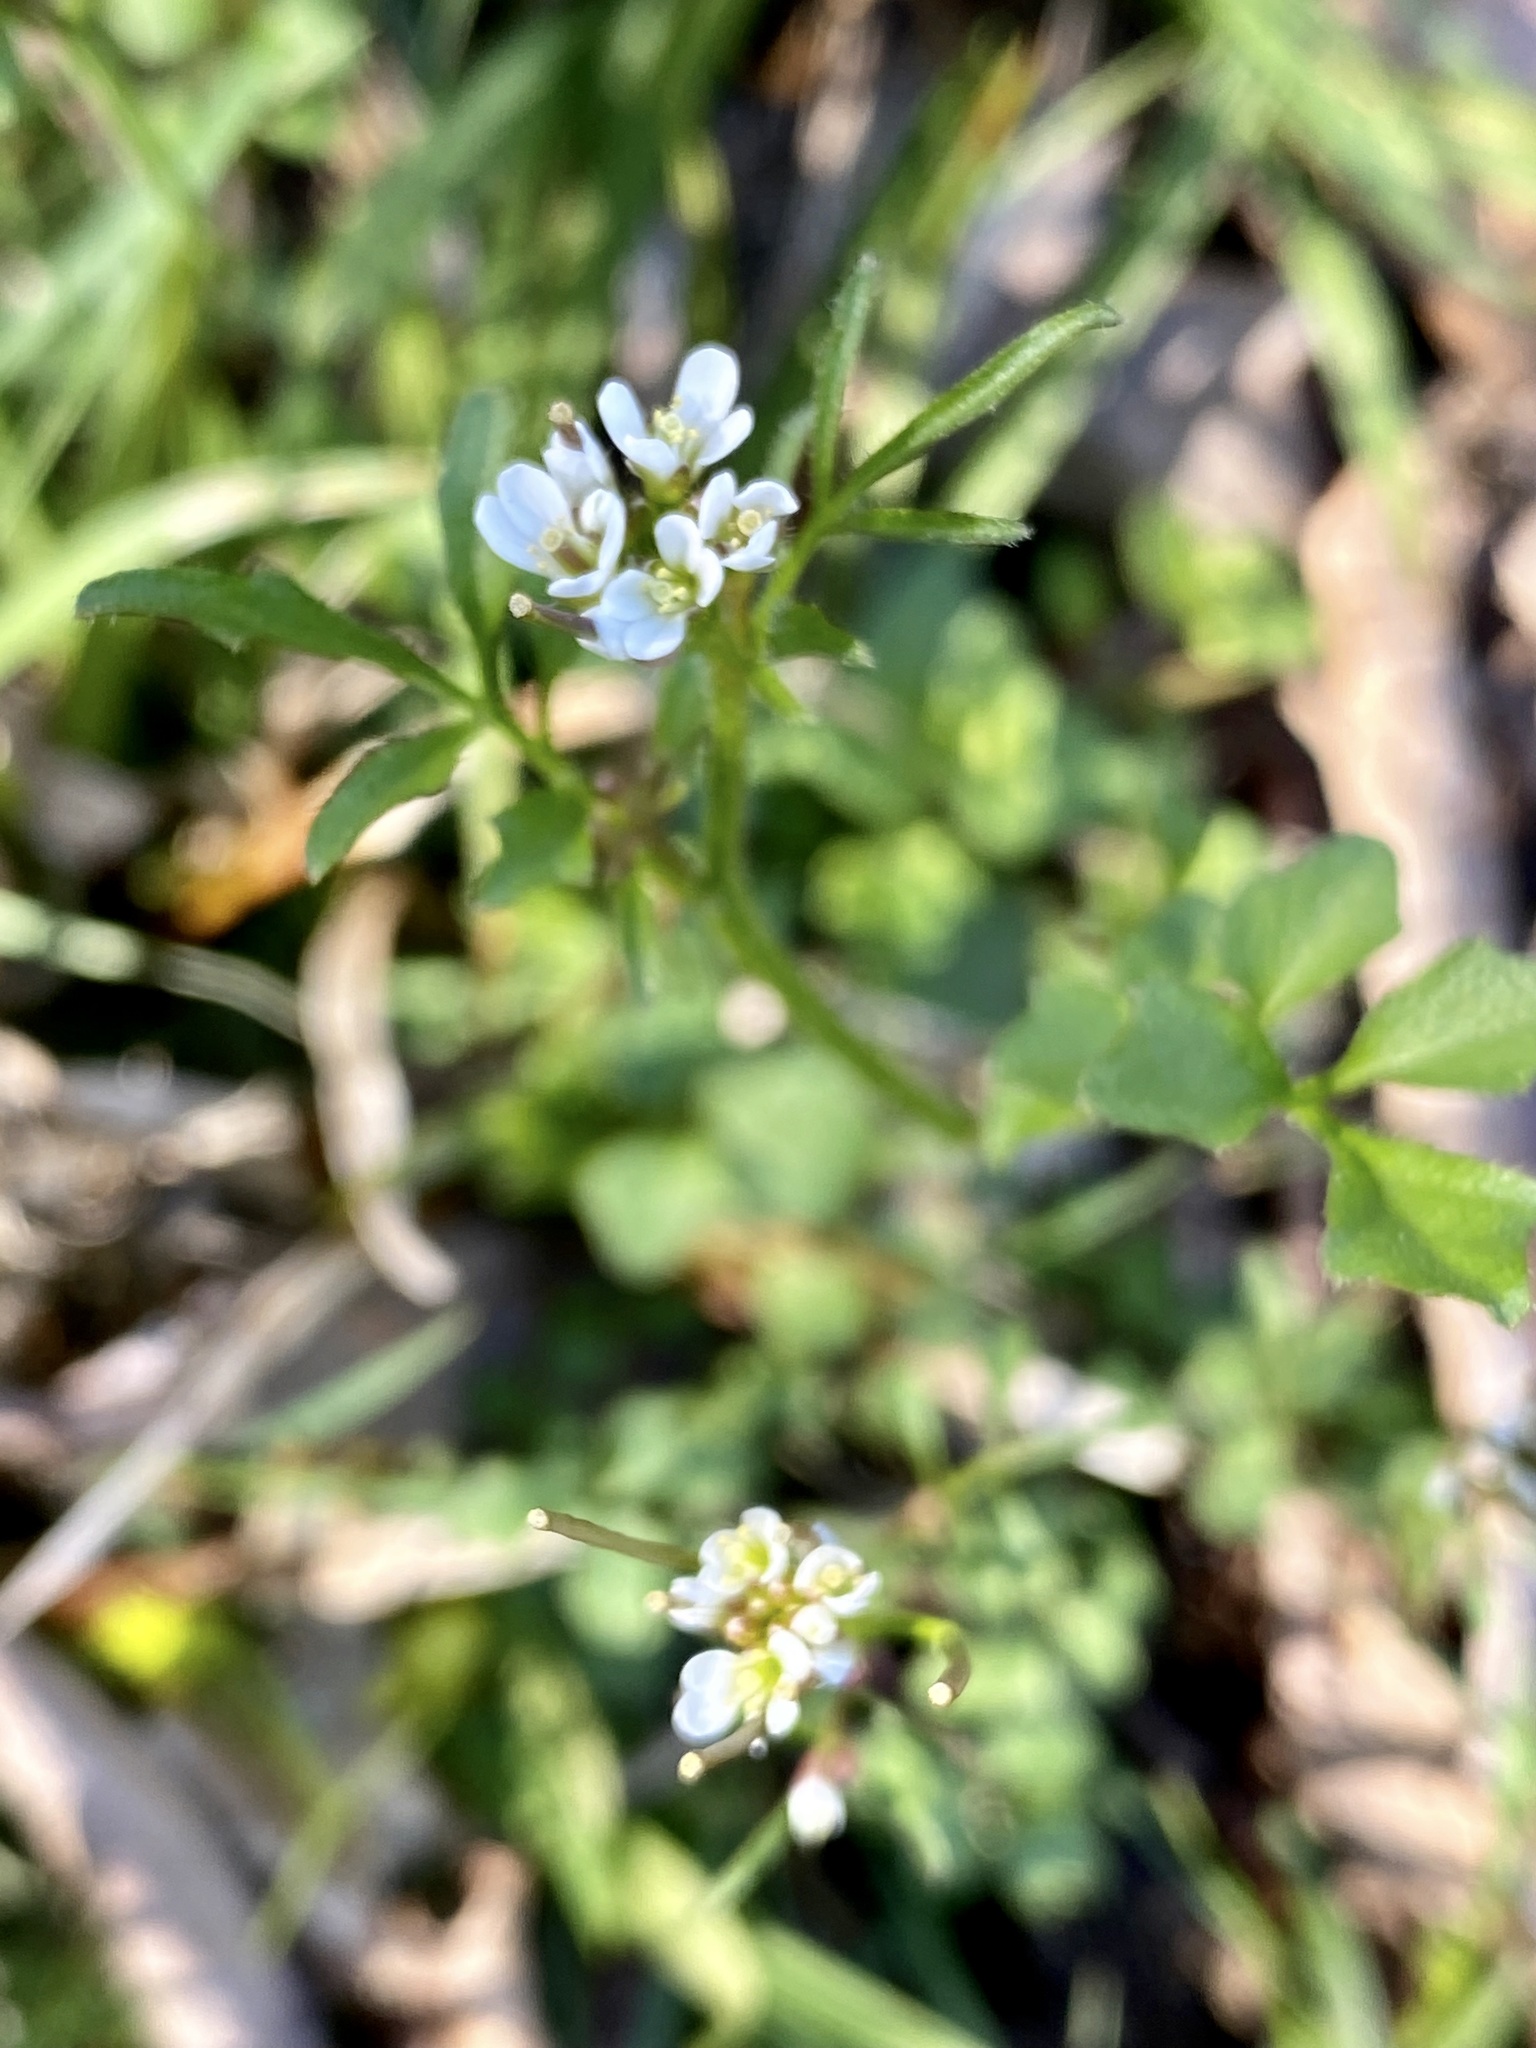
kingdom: Plantae
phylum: Tracheophyta
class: Magnoliopsida
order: Brassicales
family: Brassicaceae
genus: Cardamine
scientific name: Cardamine hirsuta
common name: Hairy bittercress
